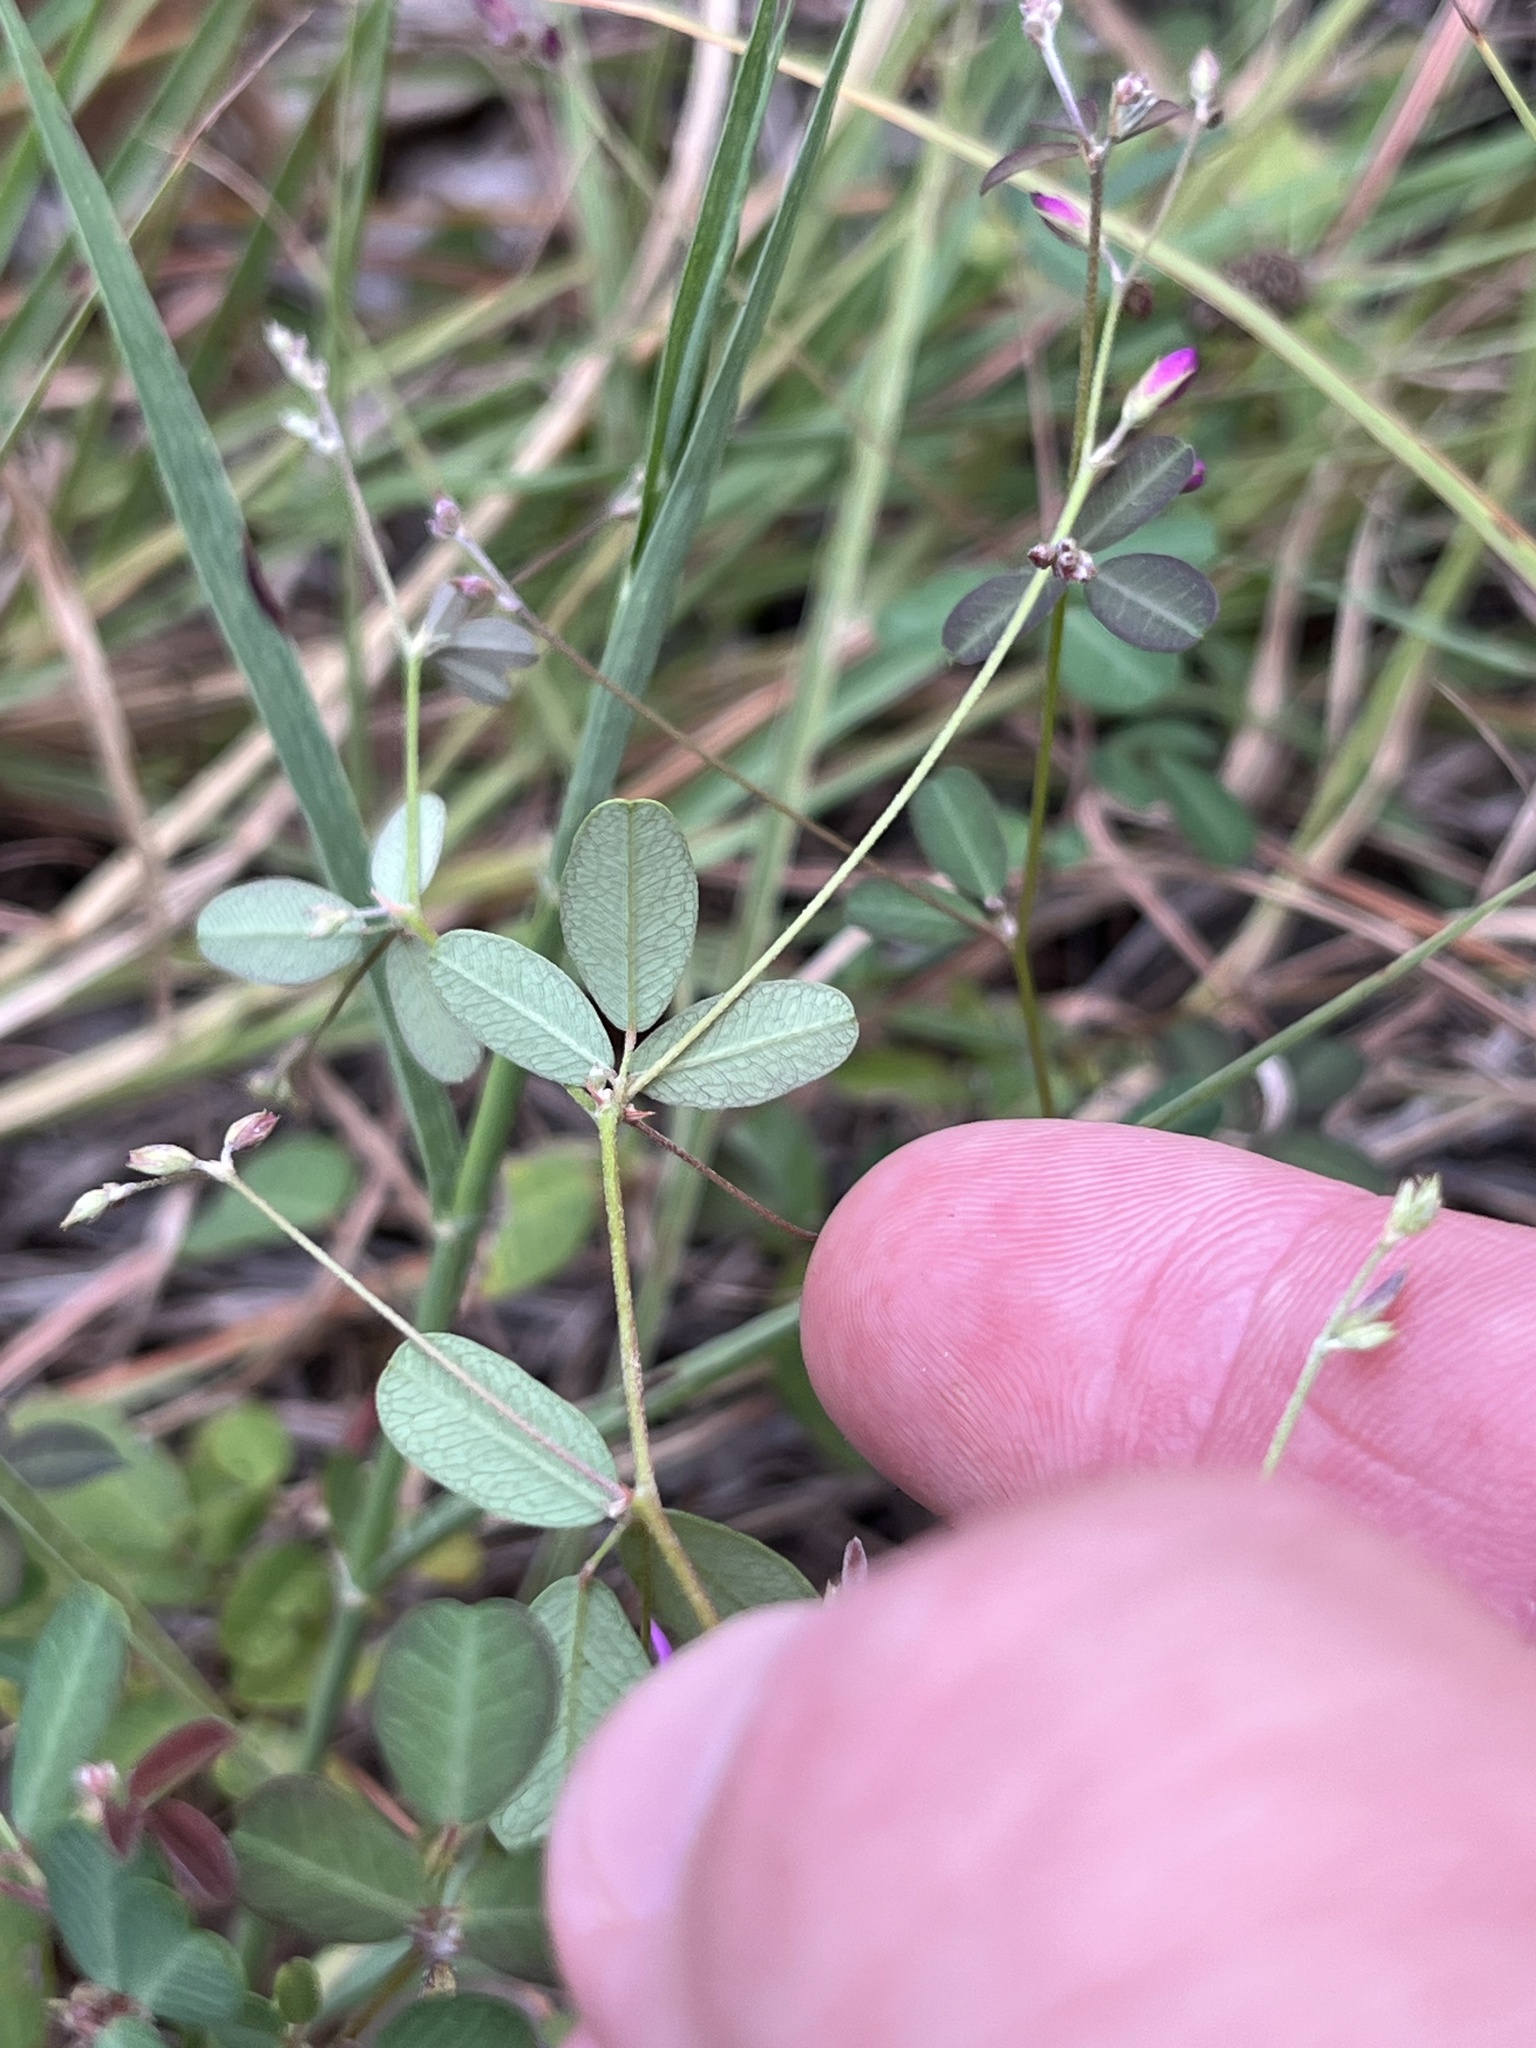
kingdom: Plantae
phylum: Tracheophyta
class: Magnoliopsida
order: Fabales
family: Fabaceae
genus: Lespedeza
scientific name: Lespedeza texana
